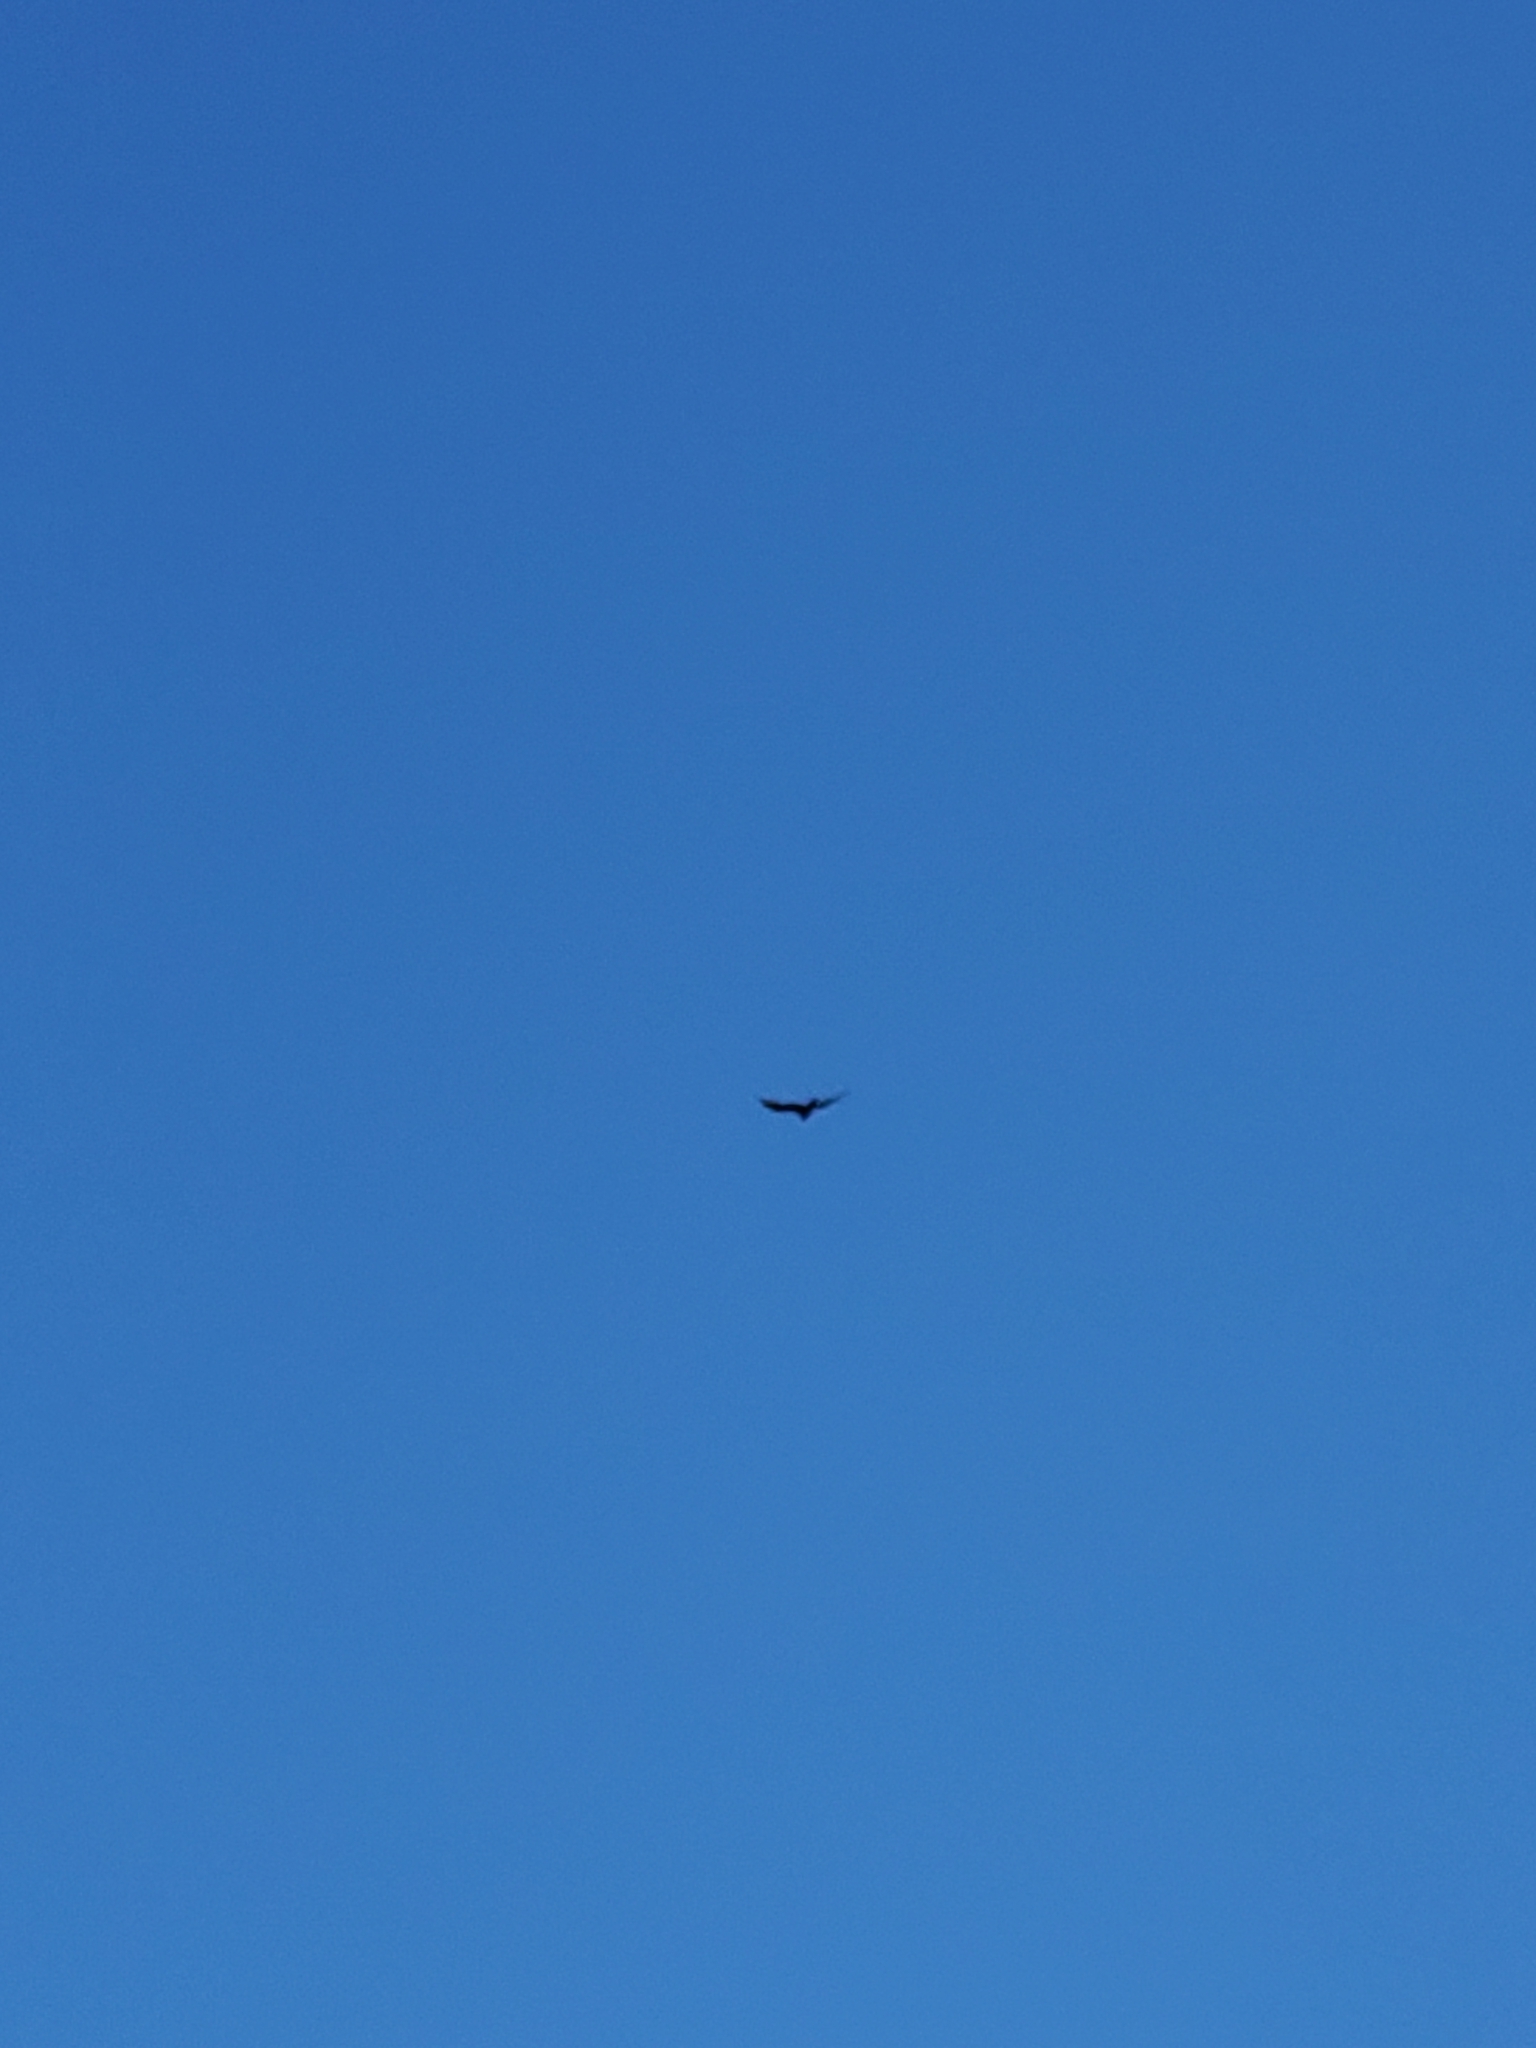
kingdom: Animalia
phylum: Chordata
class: Aves
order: Accipitriformes
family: Cathartidae
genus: Cathartes
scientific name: Cathartes aura
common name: Turkey vulture
